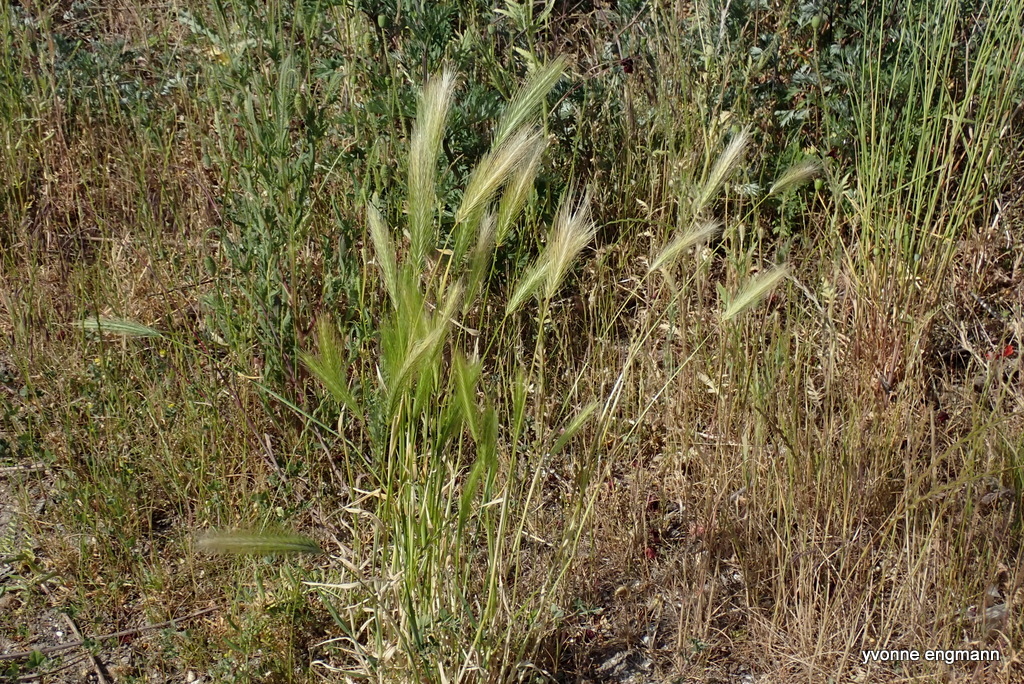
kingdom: Plantae
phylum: Tracheophyta
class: Liliopsida
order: Poales
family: Poaceae
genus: Hordeum
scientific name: Hordeum murinum
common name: Wall barley
